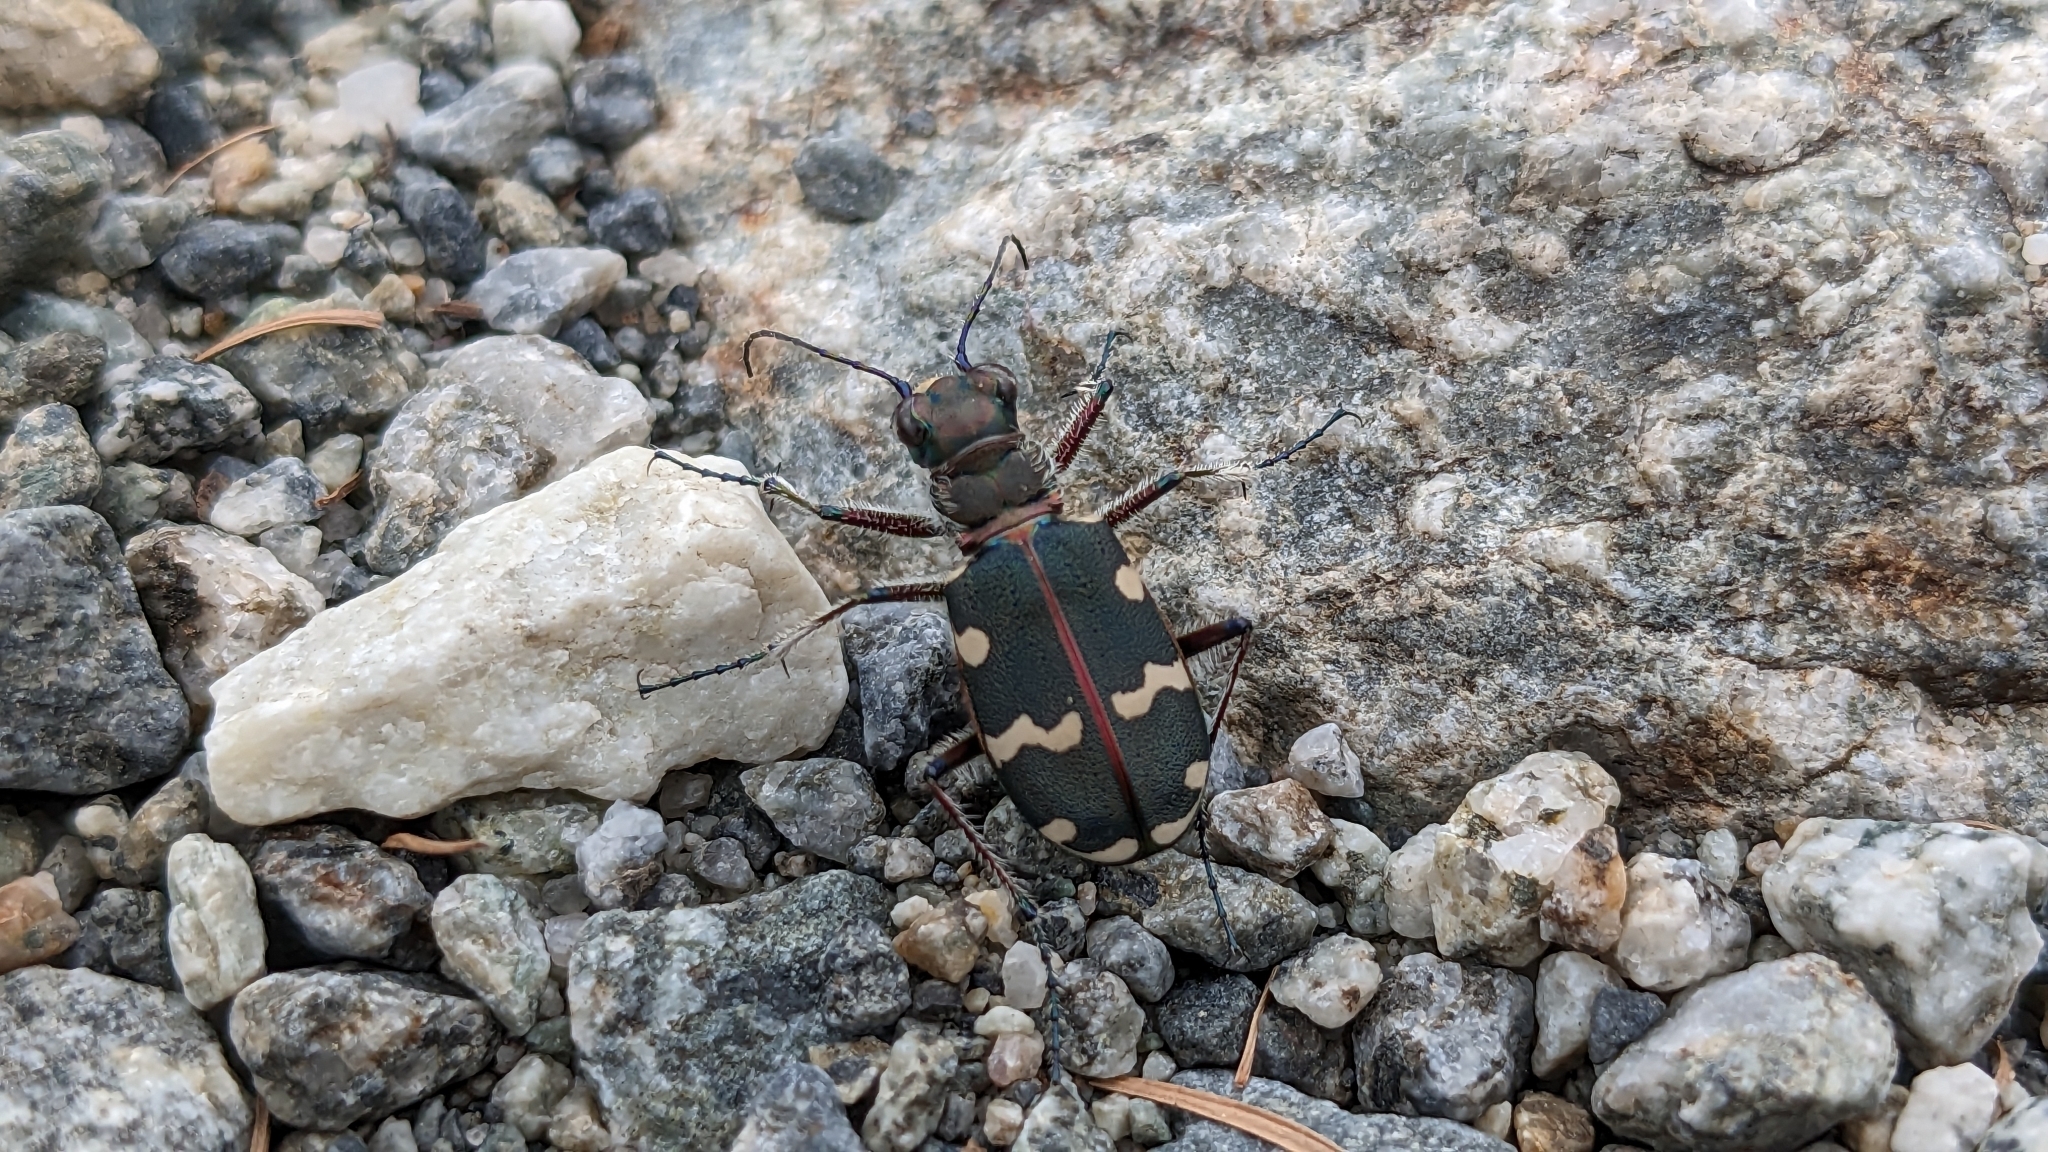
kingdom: Animalia
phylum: Arthropoda
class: Insecta
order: Coleoptera
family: Carabidae
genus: Cicindela
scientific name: Cicindela hybrida
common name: Northern dune tiger beetle
